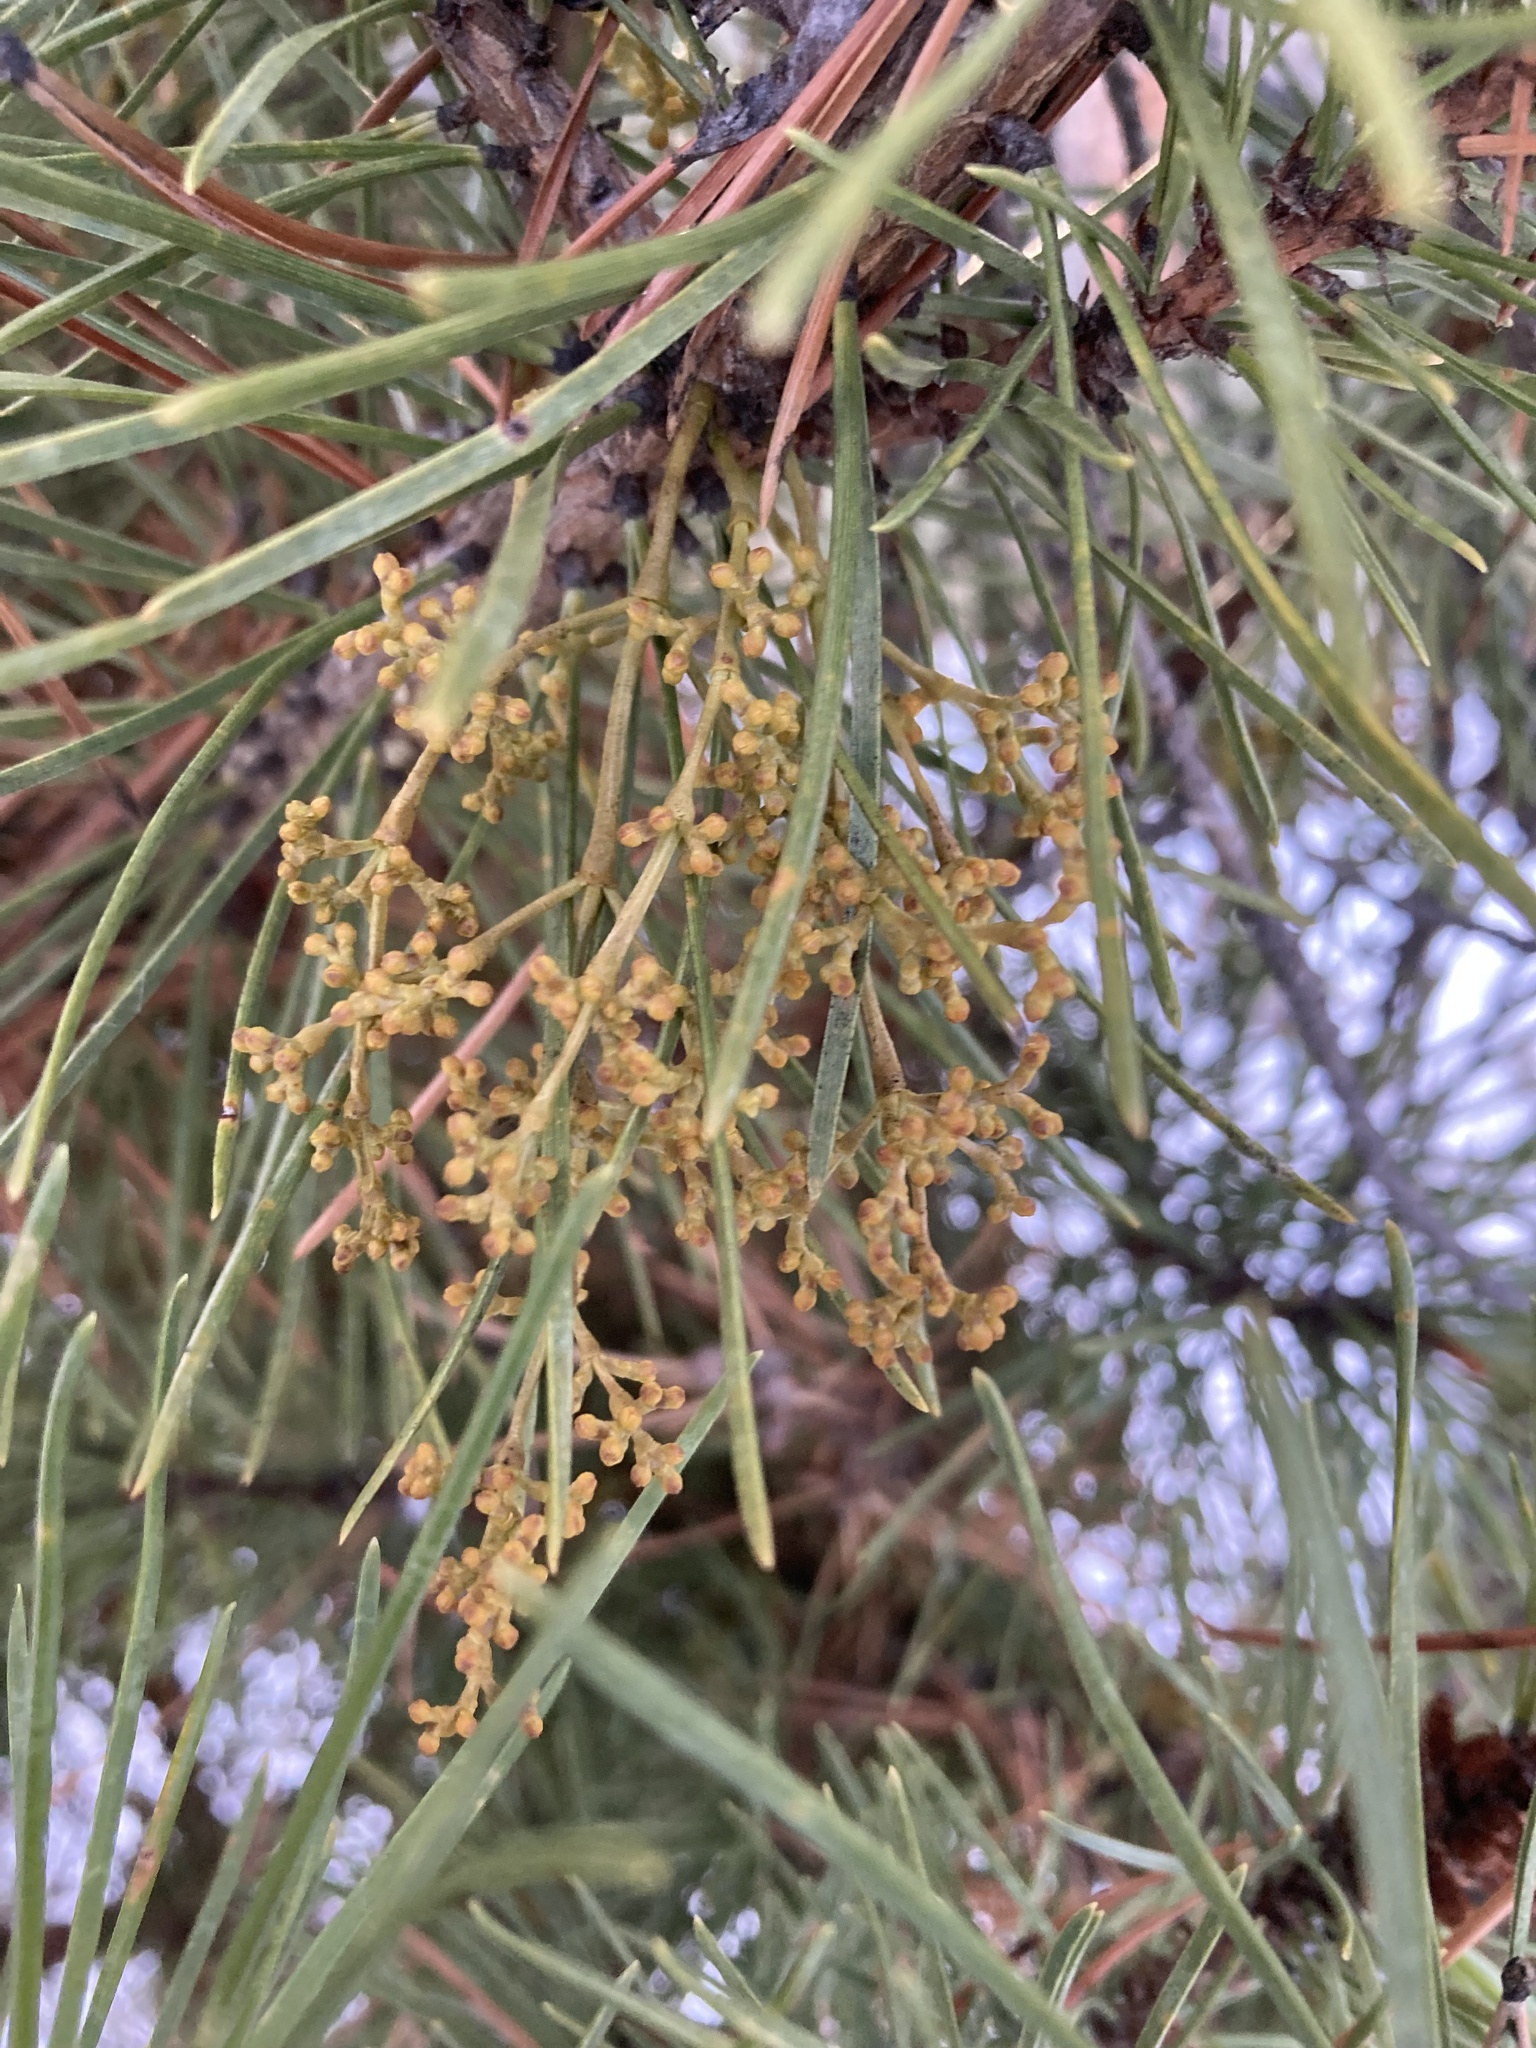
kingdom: Plantae
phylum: Tracheophyta
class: Magnoliopsida
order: Santalales
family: Viscaceae
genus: Arceuthobium
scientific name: Arceuthobium americanum
